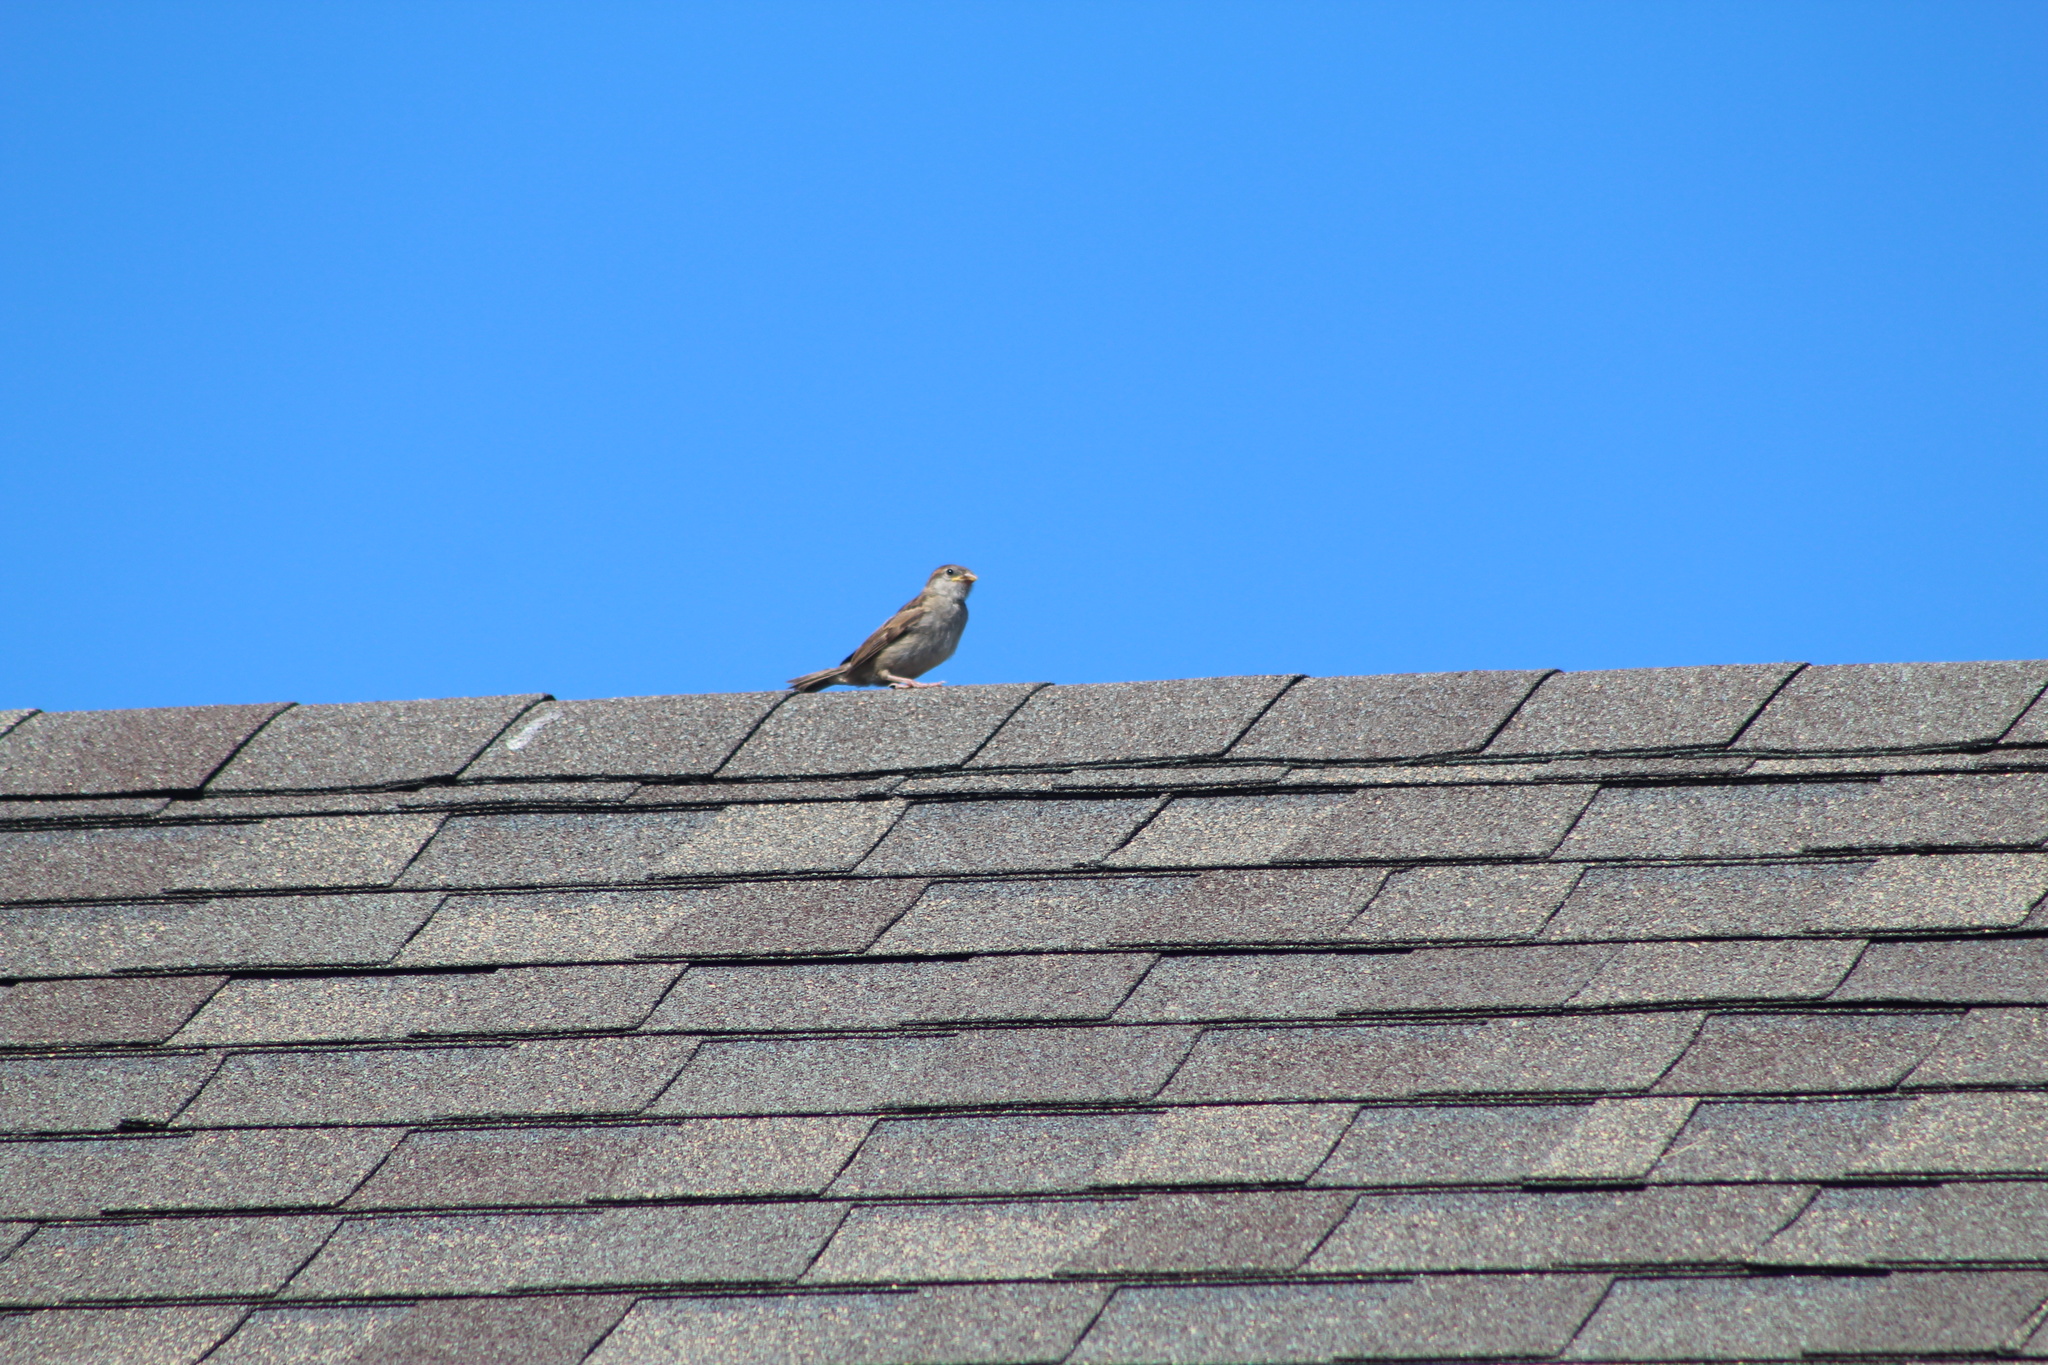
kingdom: Animalia
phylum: Chordata
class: Aves
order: Passeriformes
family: Passeridae
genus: Passer
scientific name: Passer domesticus
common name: House sparrow
